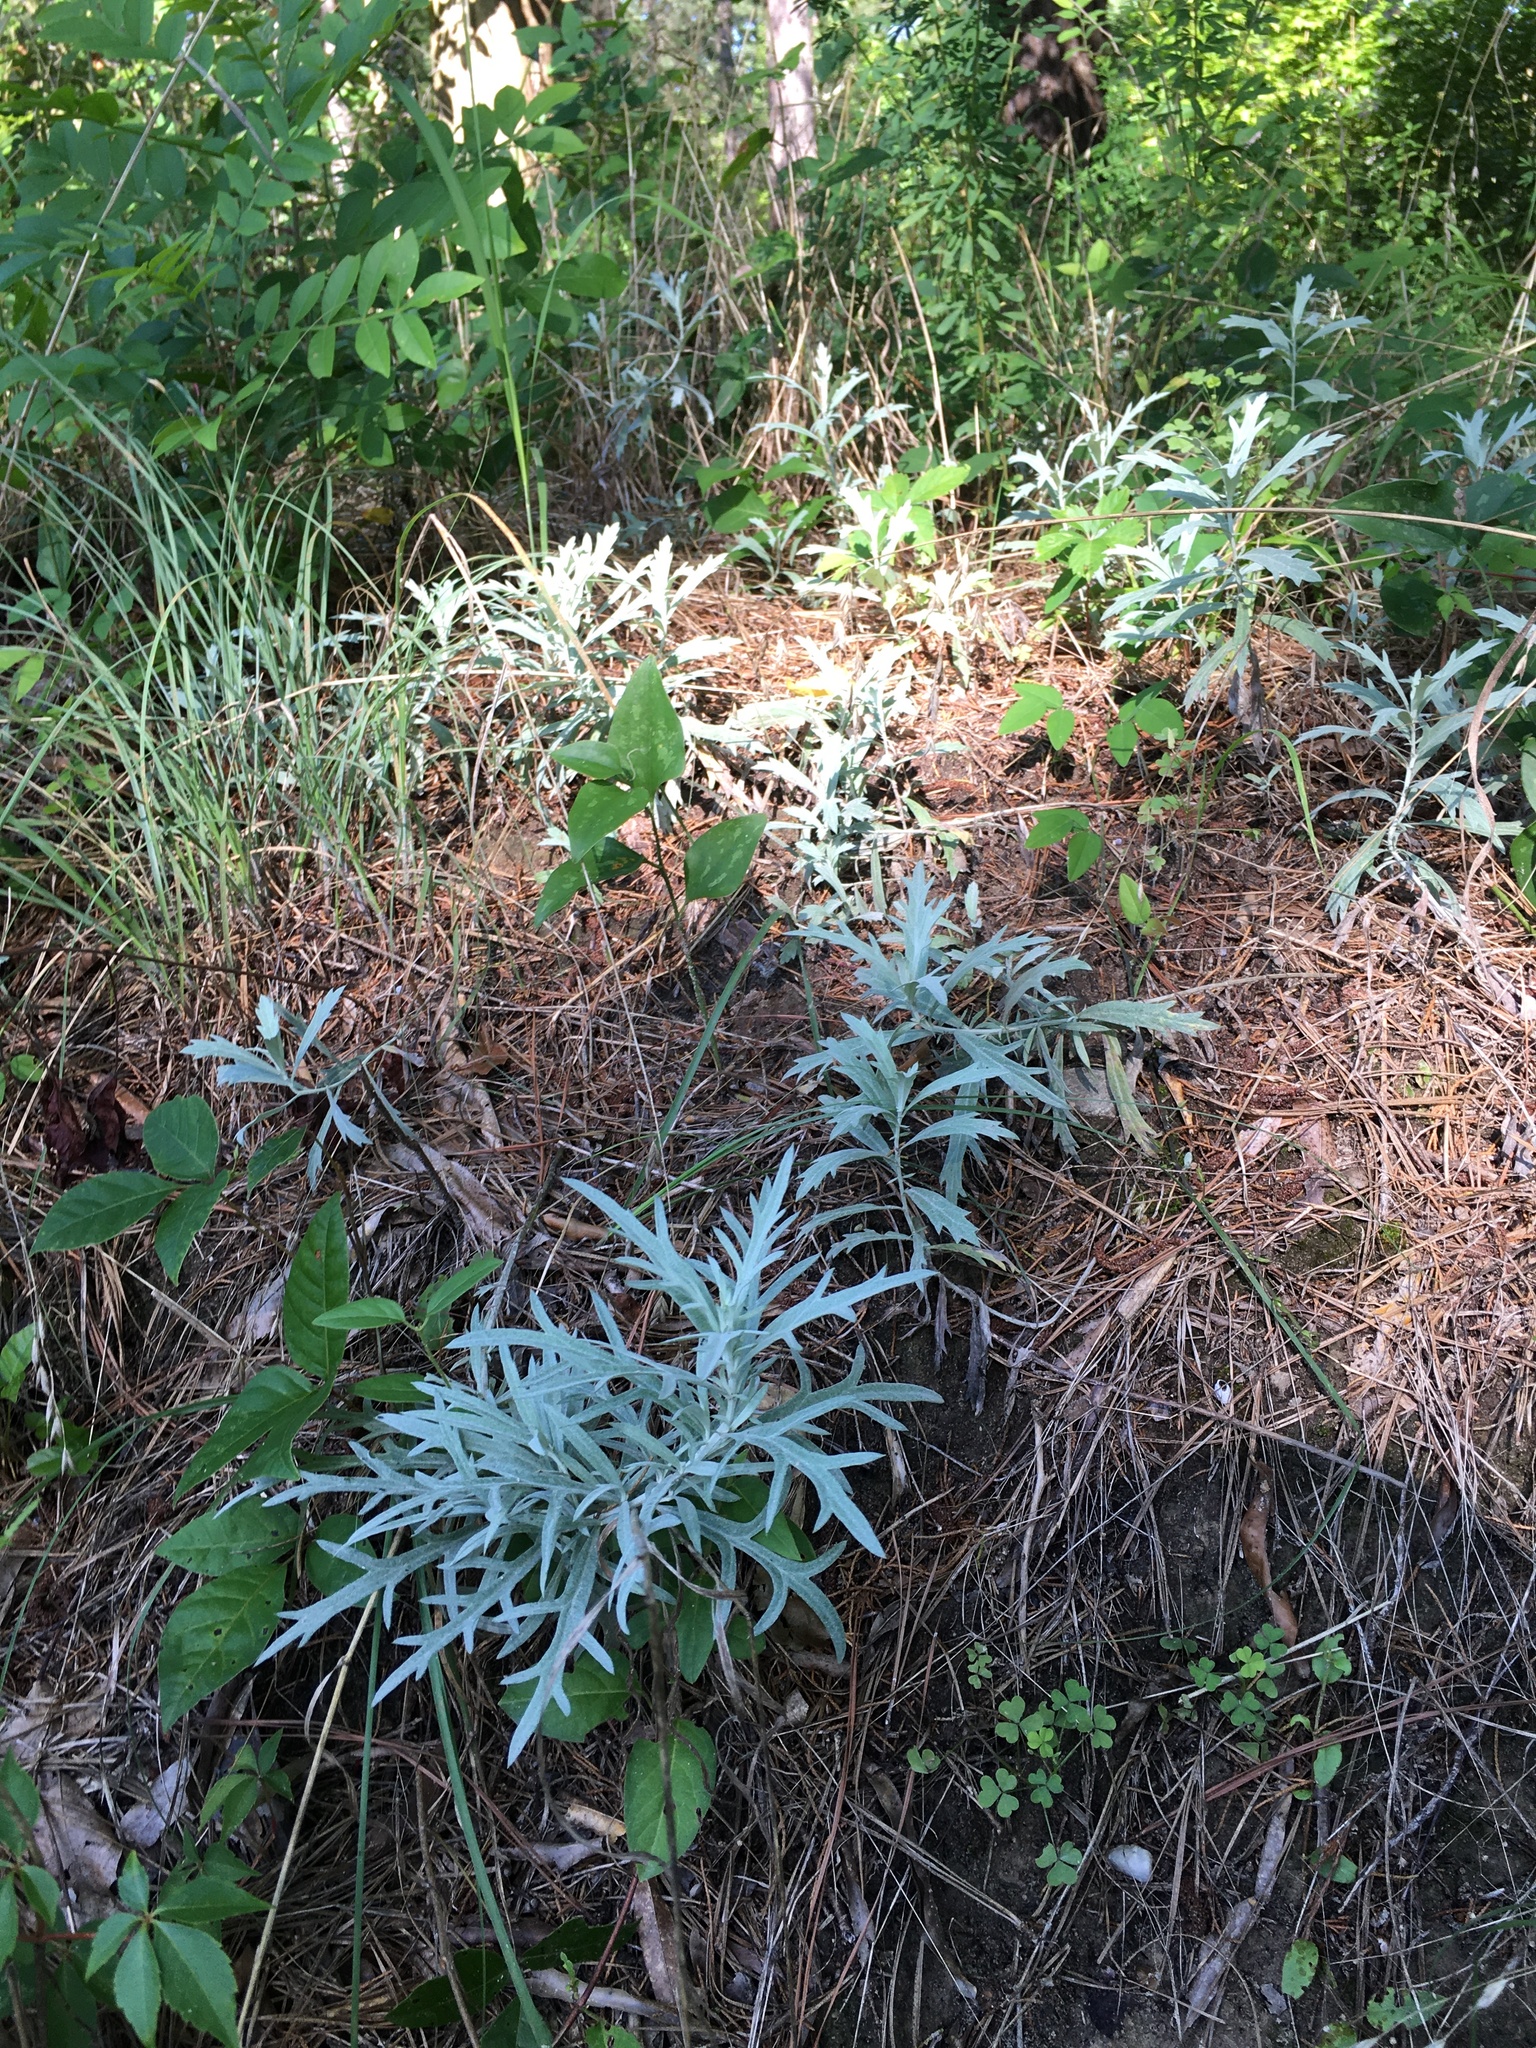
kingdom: Plantae
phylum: Tracheophyta
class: Magnoliopsida
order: Asterales
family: Asteraceae
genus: Artemisia
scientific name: Artemisia ludoviciana
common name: Western mugwort
